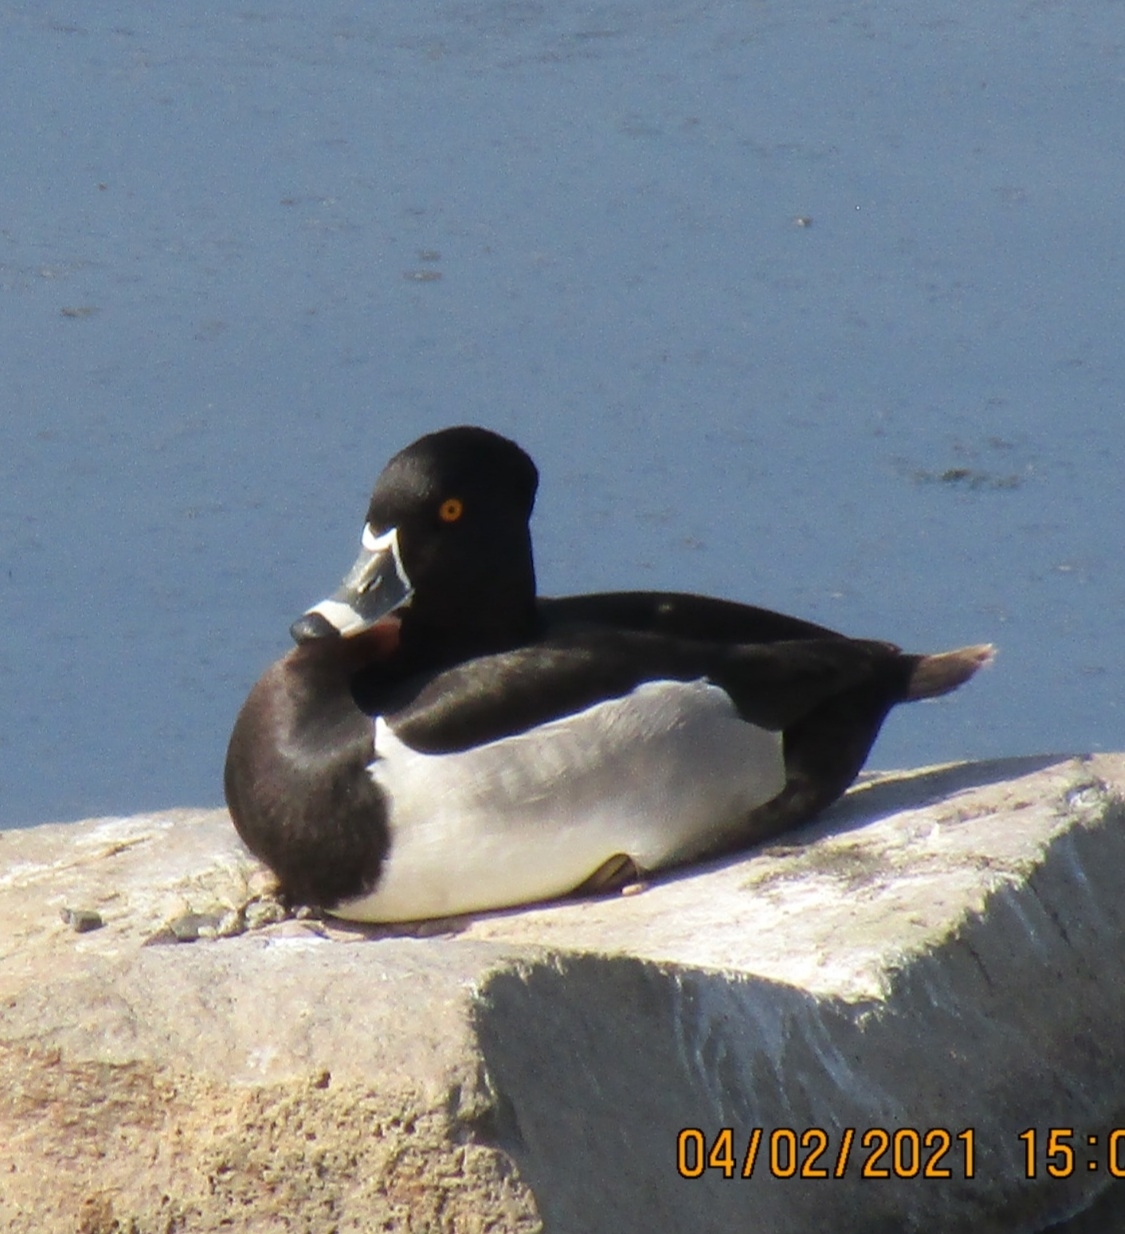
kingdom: Animalia
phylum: Chordata
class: Aves
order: Anseriformes
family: Anatidae
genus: Aythya
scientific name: Aythya collaris
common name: Ring-necked duck
